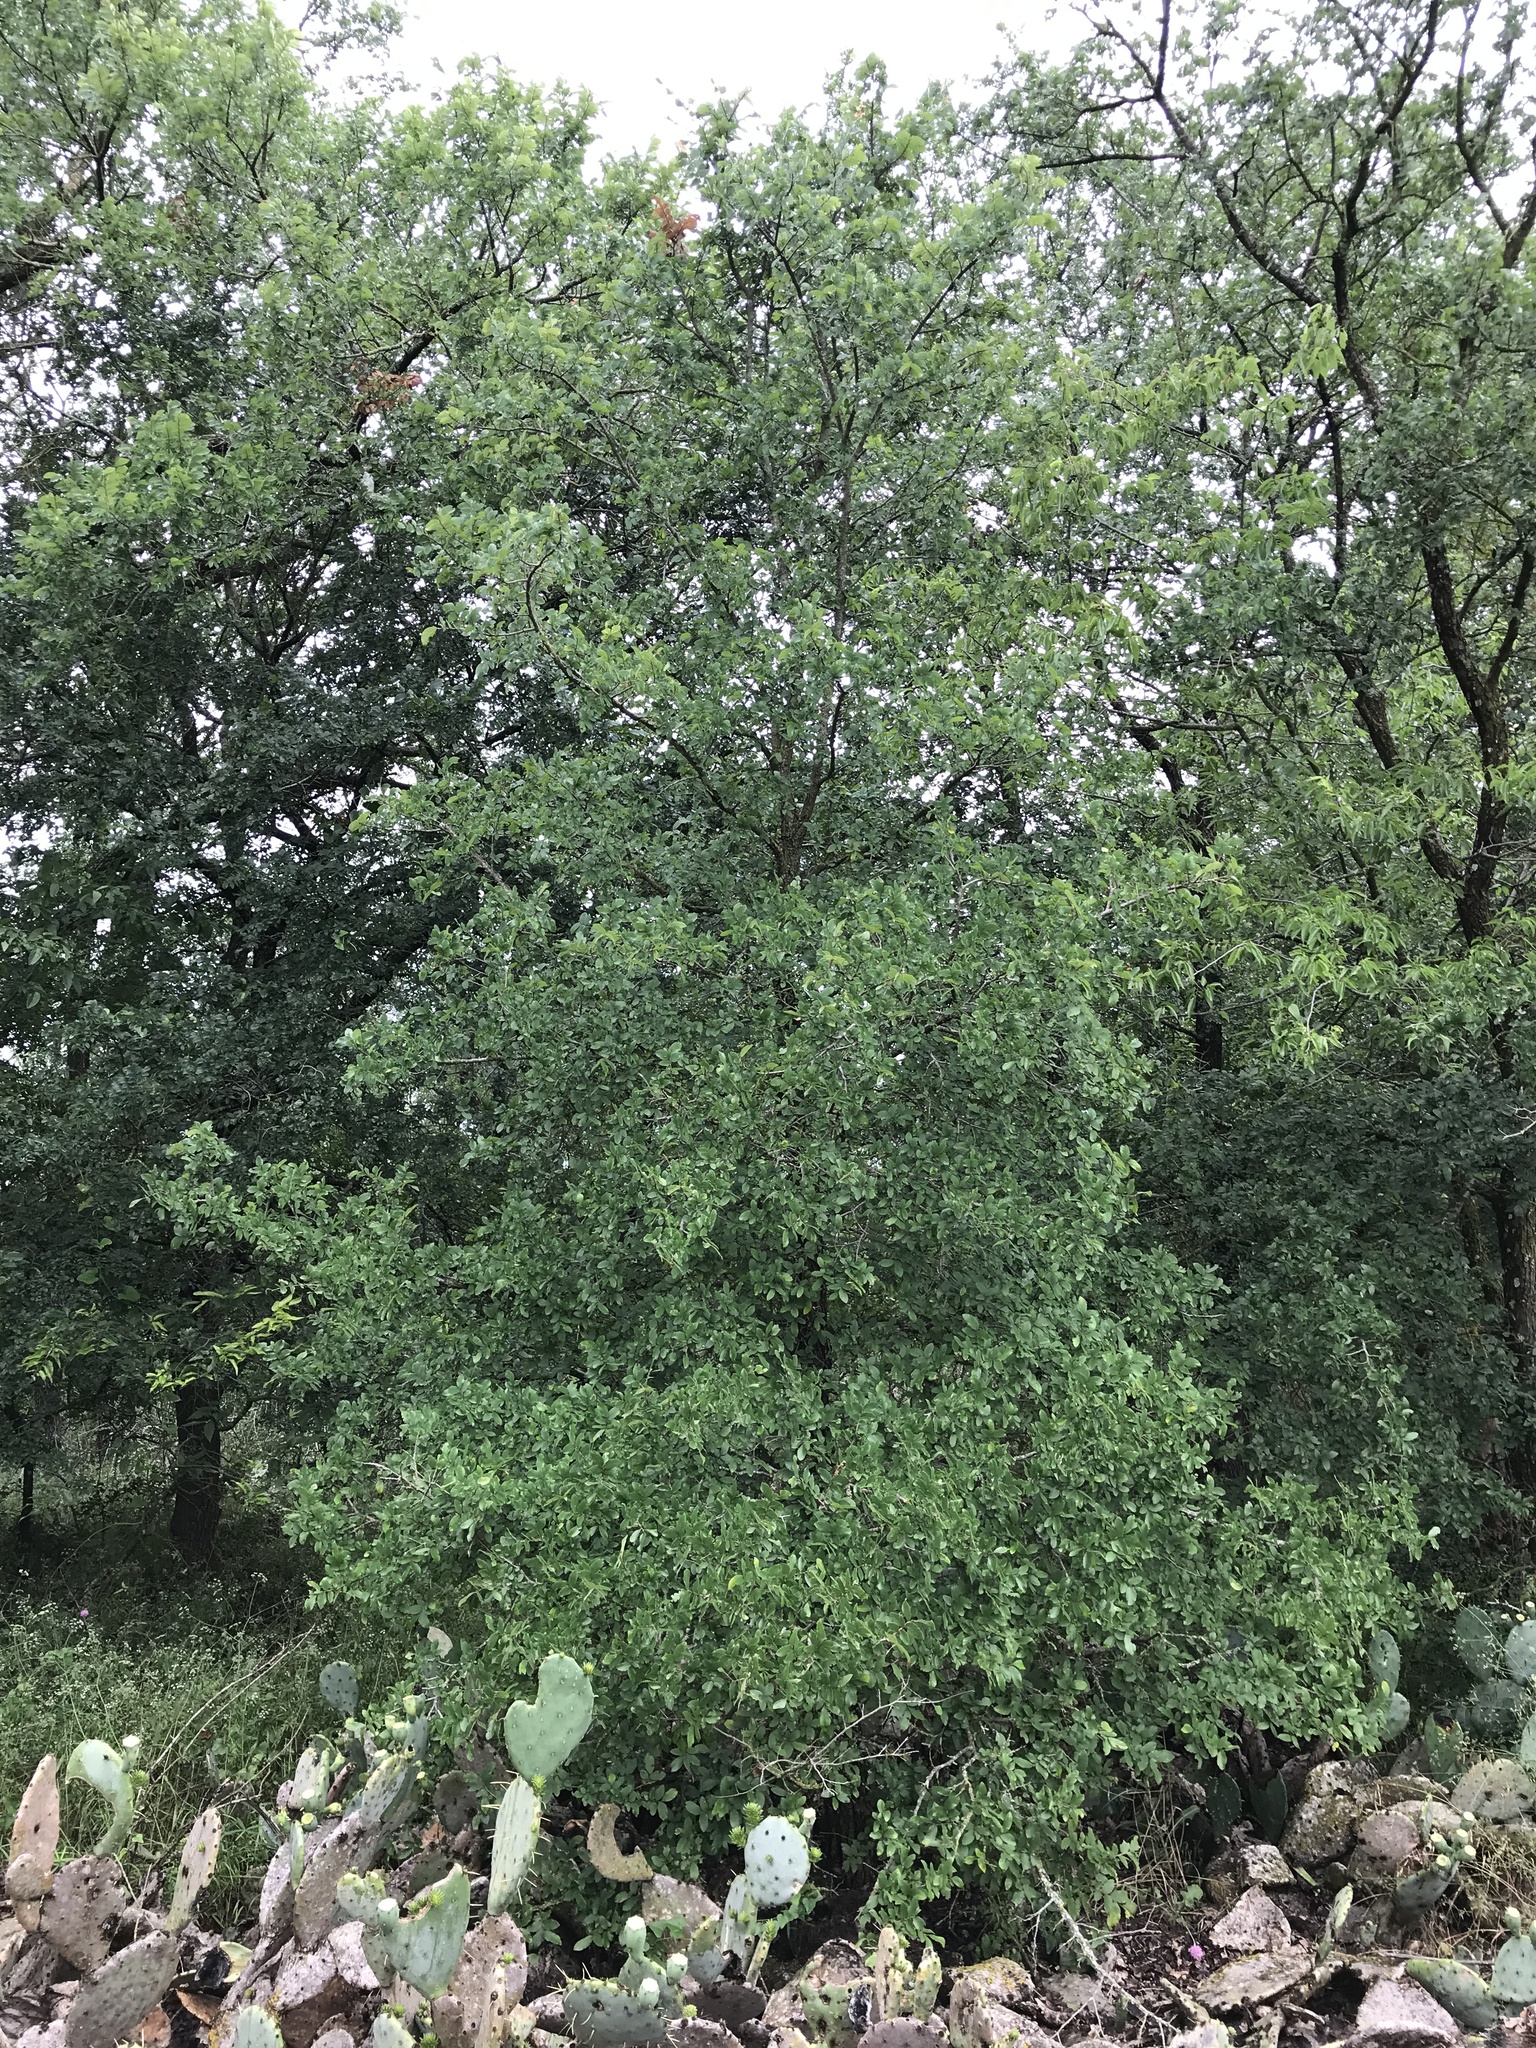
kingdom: Plantae
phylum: Tracheophyta
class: Magnoliopsida
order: Rosales
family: Ulmaceae
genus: Ulmus
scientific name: Ulmus crassifolia
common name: Basket elm
